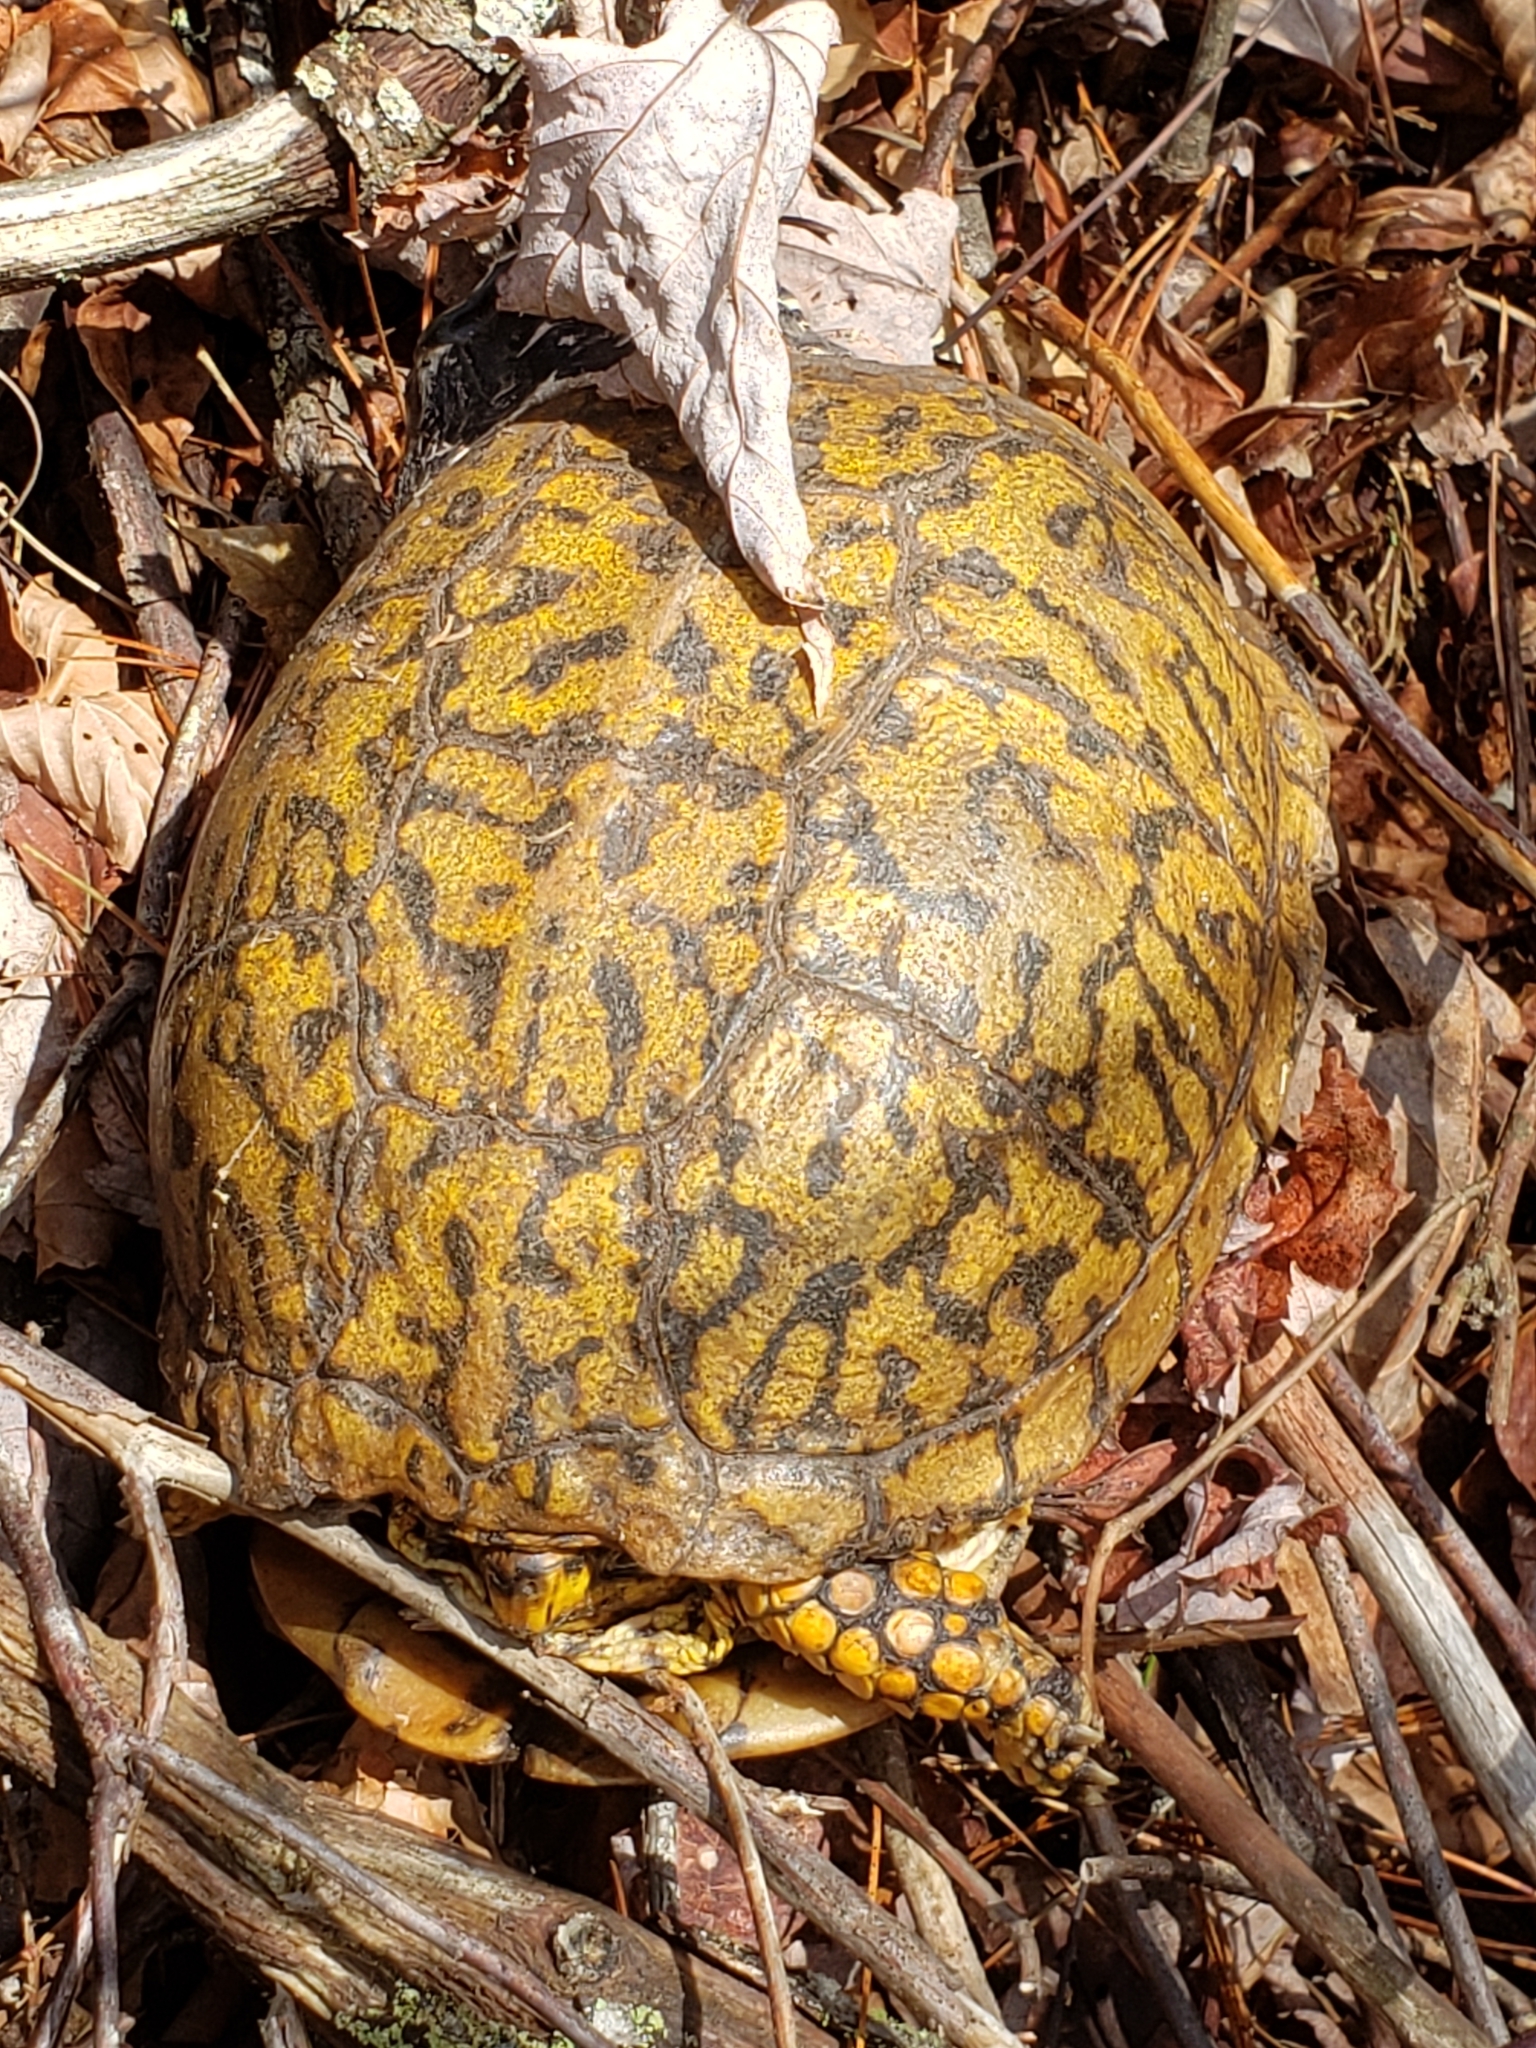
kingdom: Animalia
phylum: Chordata
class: Testudines
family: Emydidae
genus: Terrapene
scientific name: Terrapene carolina
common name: Common box turtle
